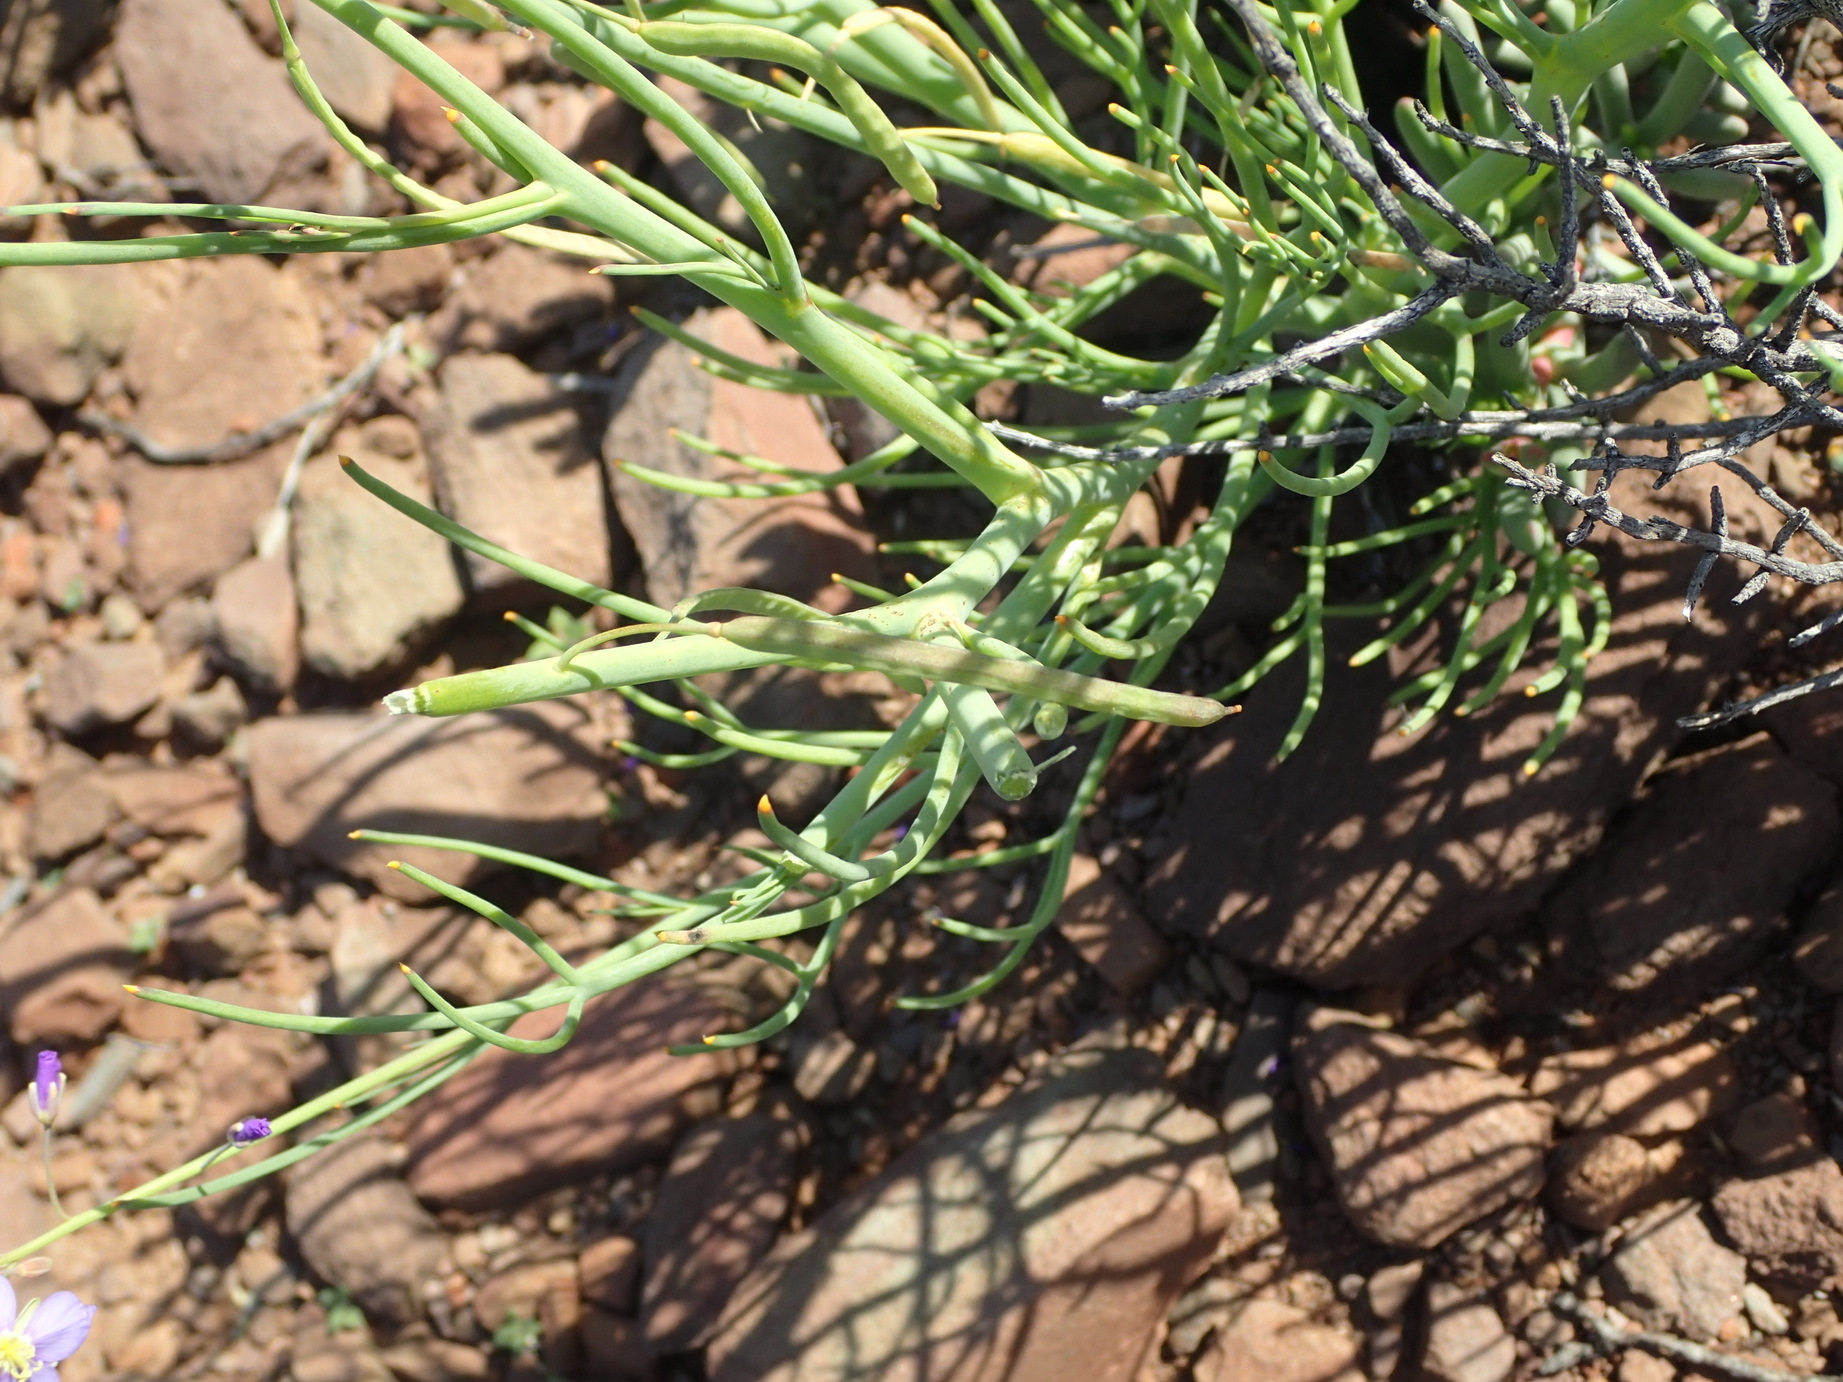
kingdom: Plantae
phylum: Tracheophyta
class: Magnoliopsida
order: Brassicales
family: Brassicaceae
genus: Heliophila
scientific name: Heliophila trifurca
